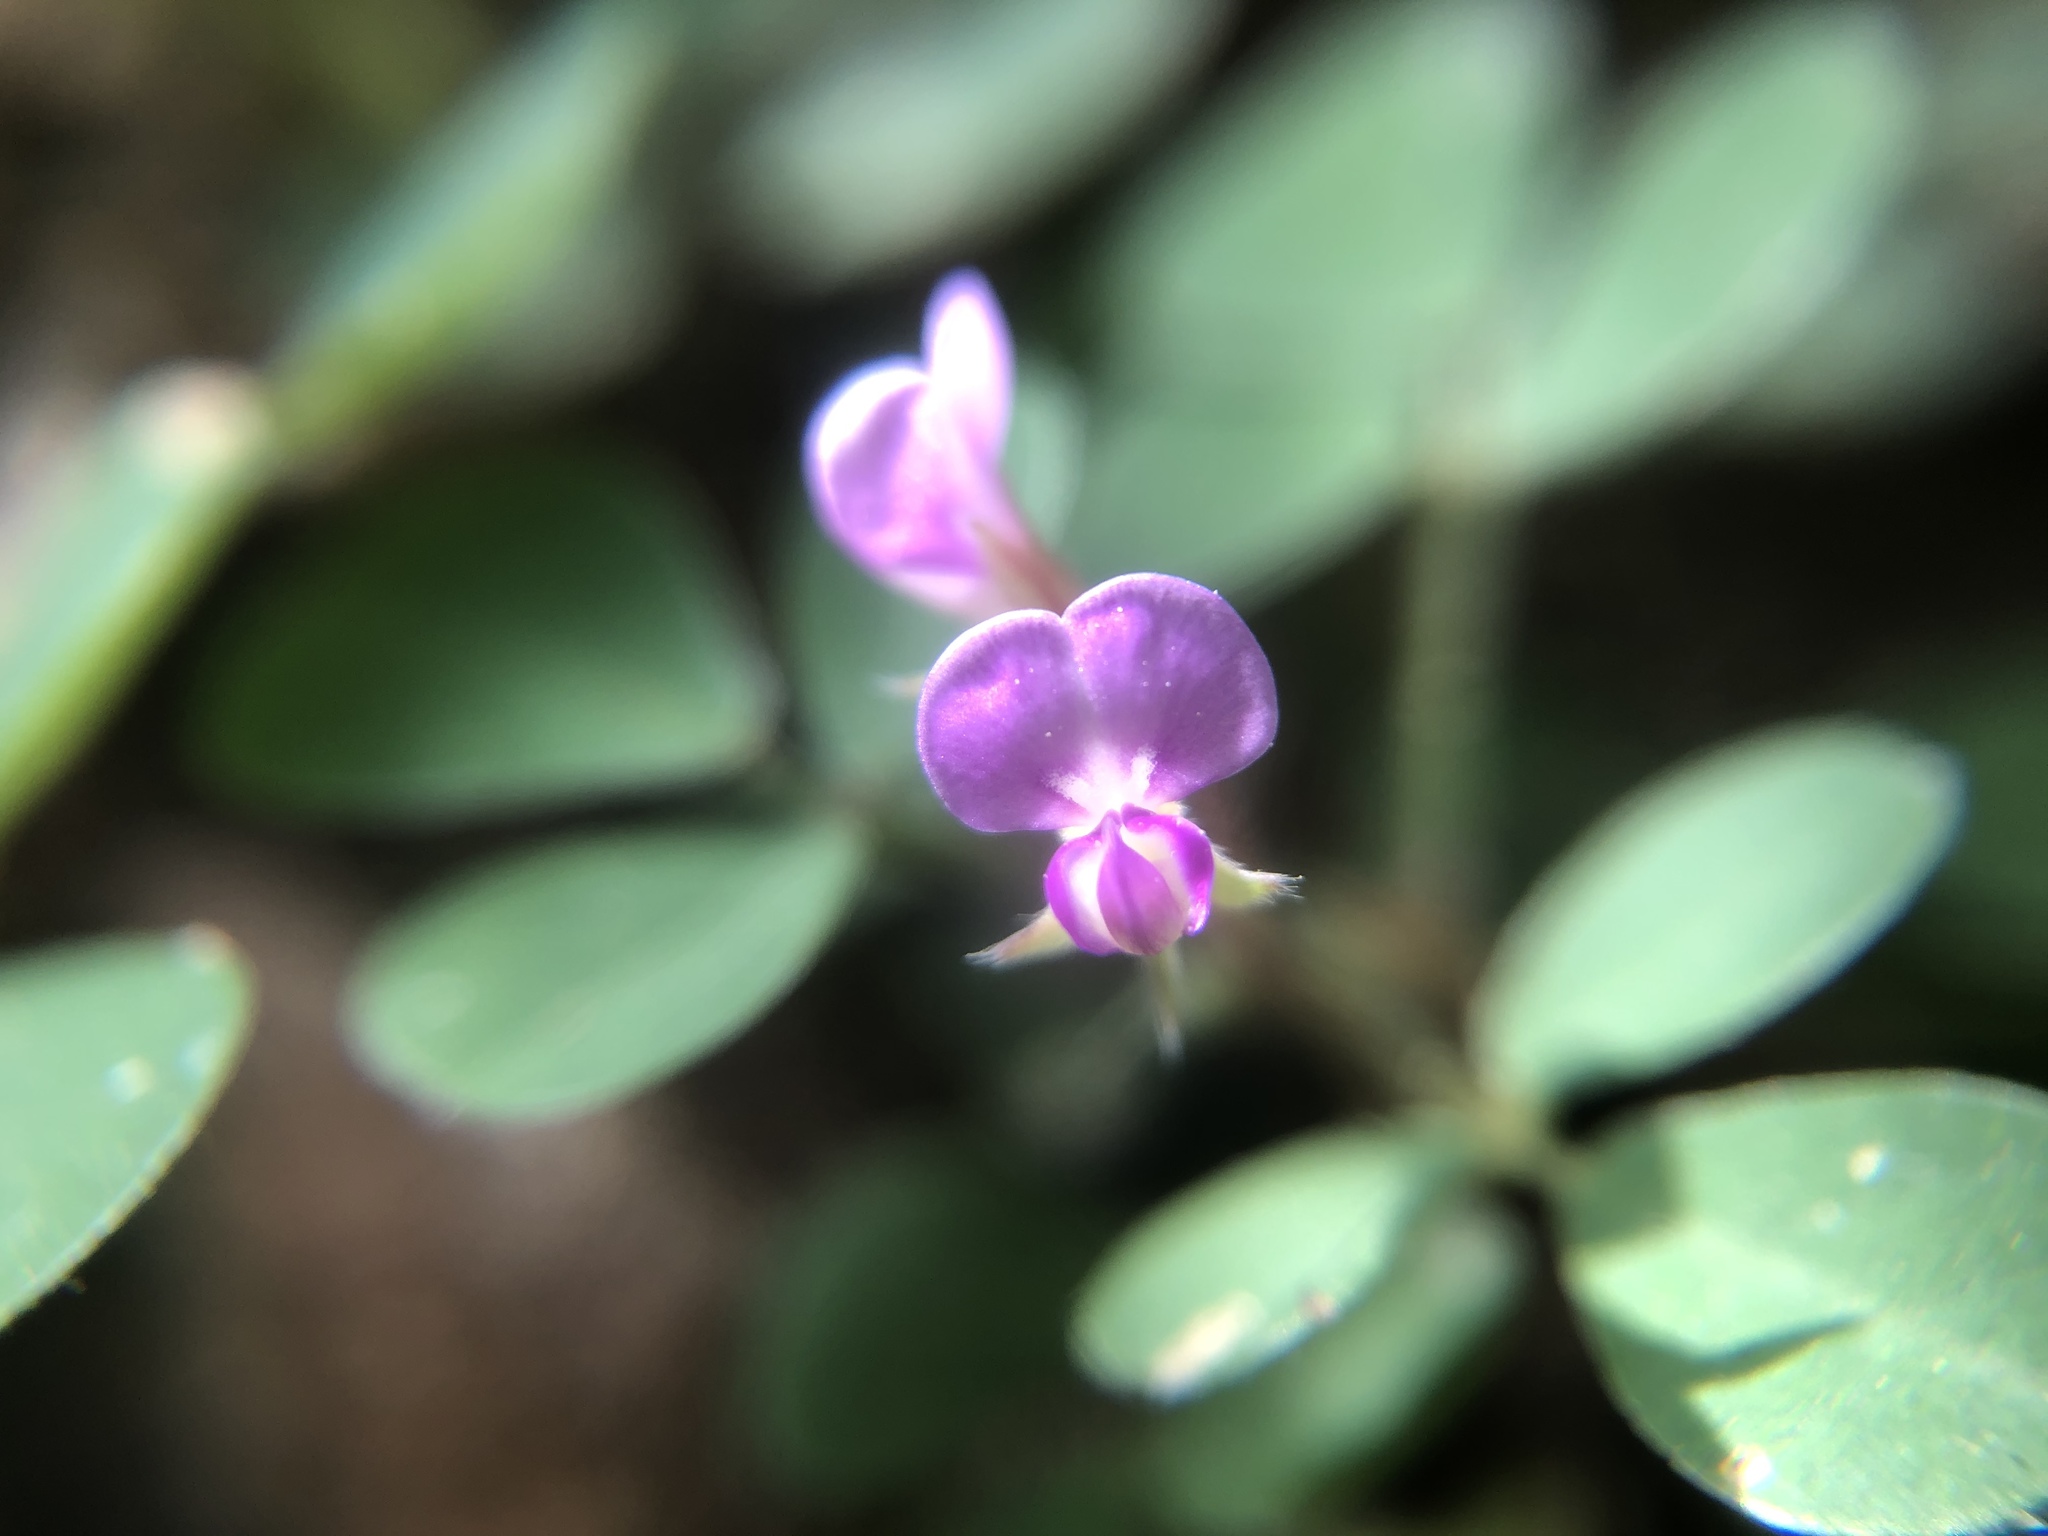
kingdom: Plantae
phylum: Tracheophyta
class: Magnoliopsida
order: Fabales
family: Fabaceae
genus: Grona
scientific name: Grona triflora
